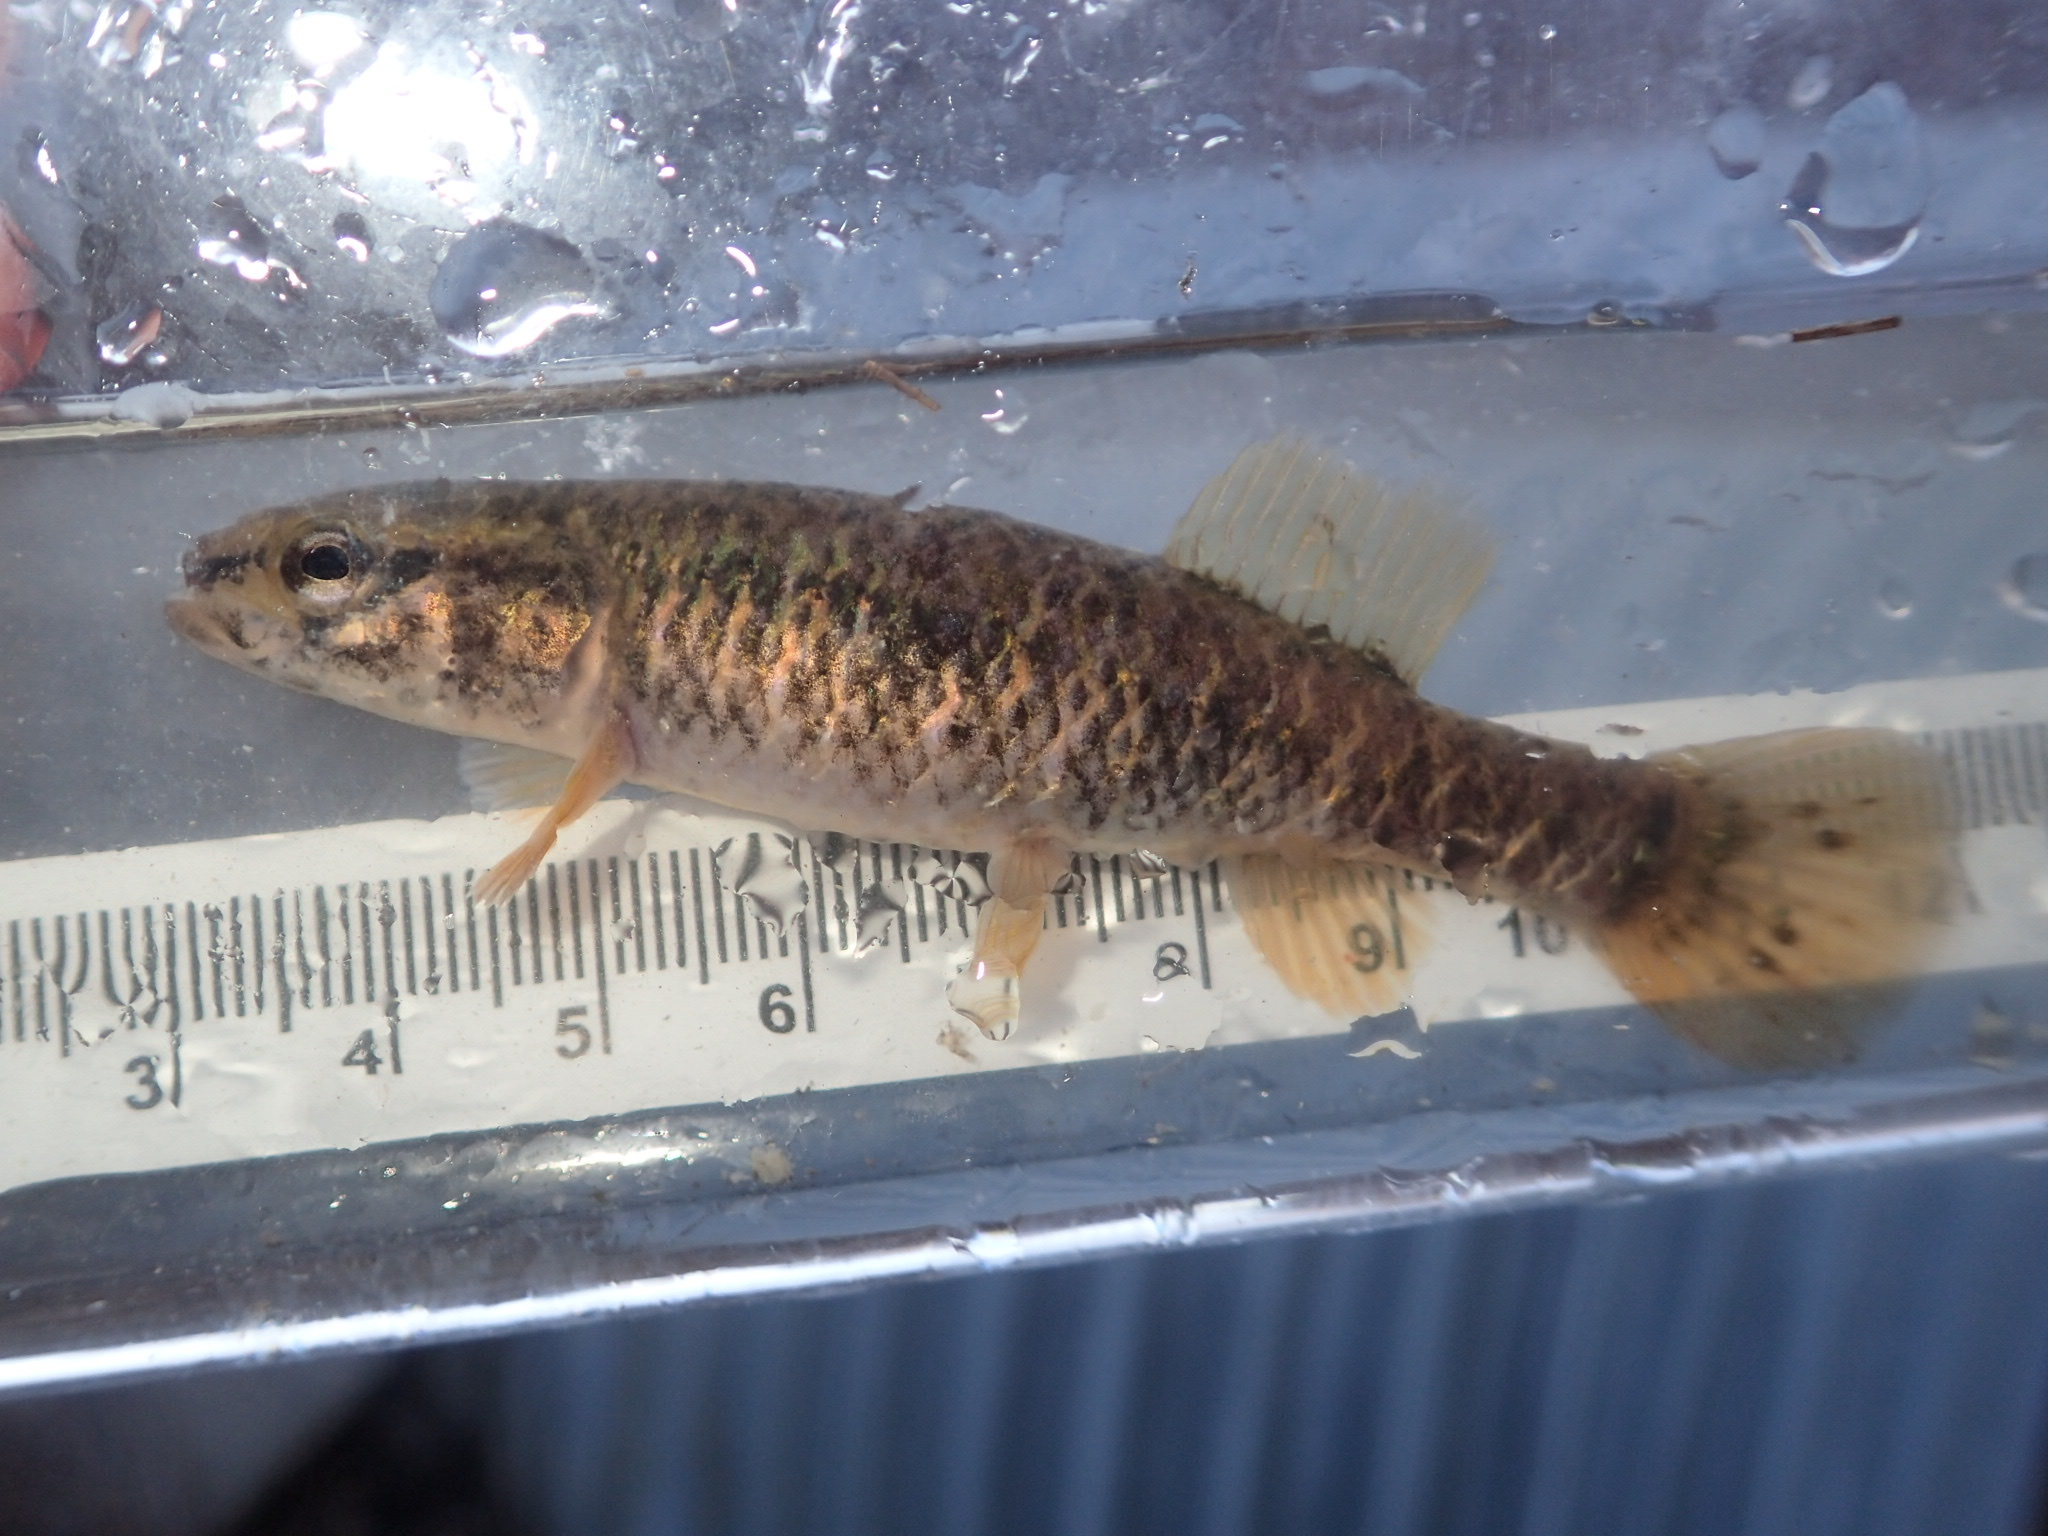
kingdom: Animalia
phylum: Chordata
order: Esociformes
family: Umbridae
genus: Umbra
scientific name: Umbra limi
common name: Central mudminnow
